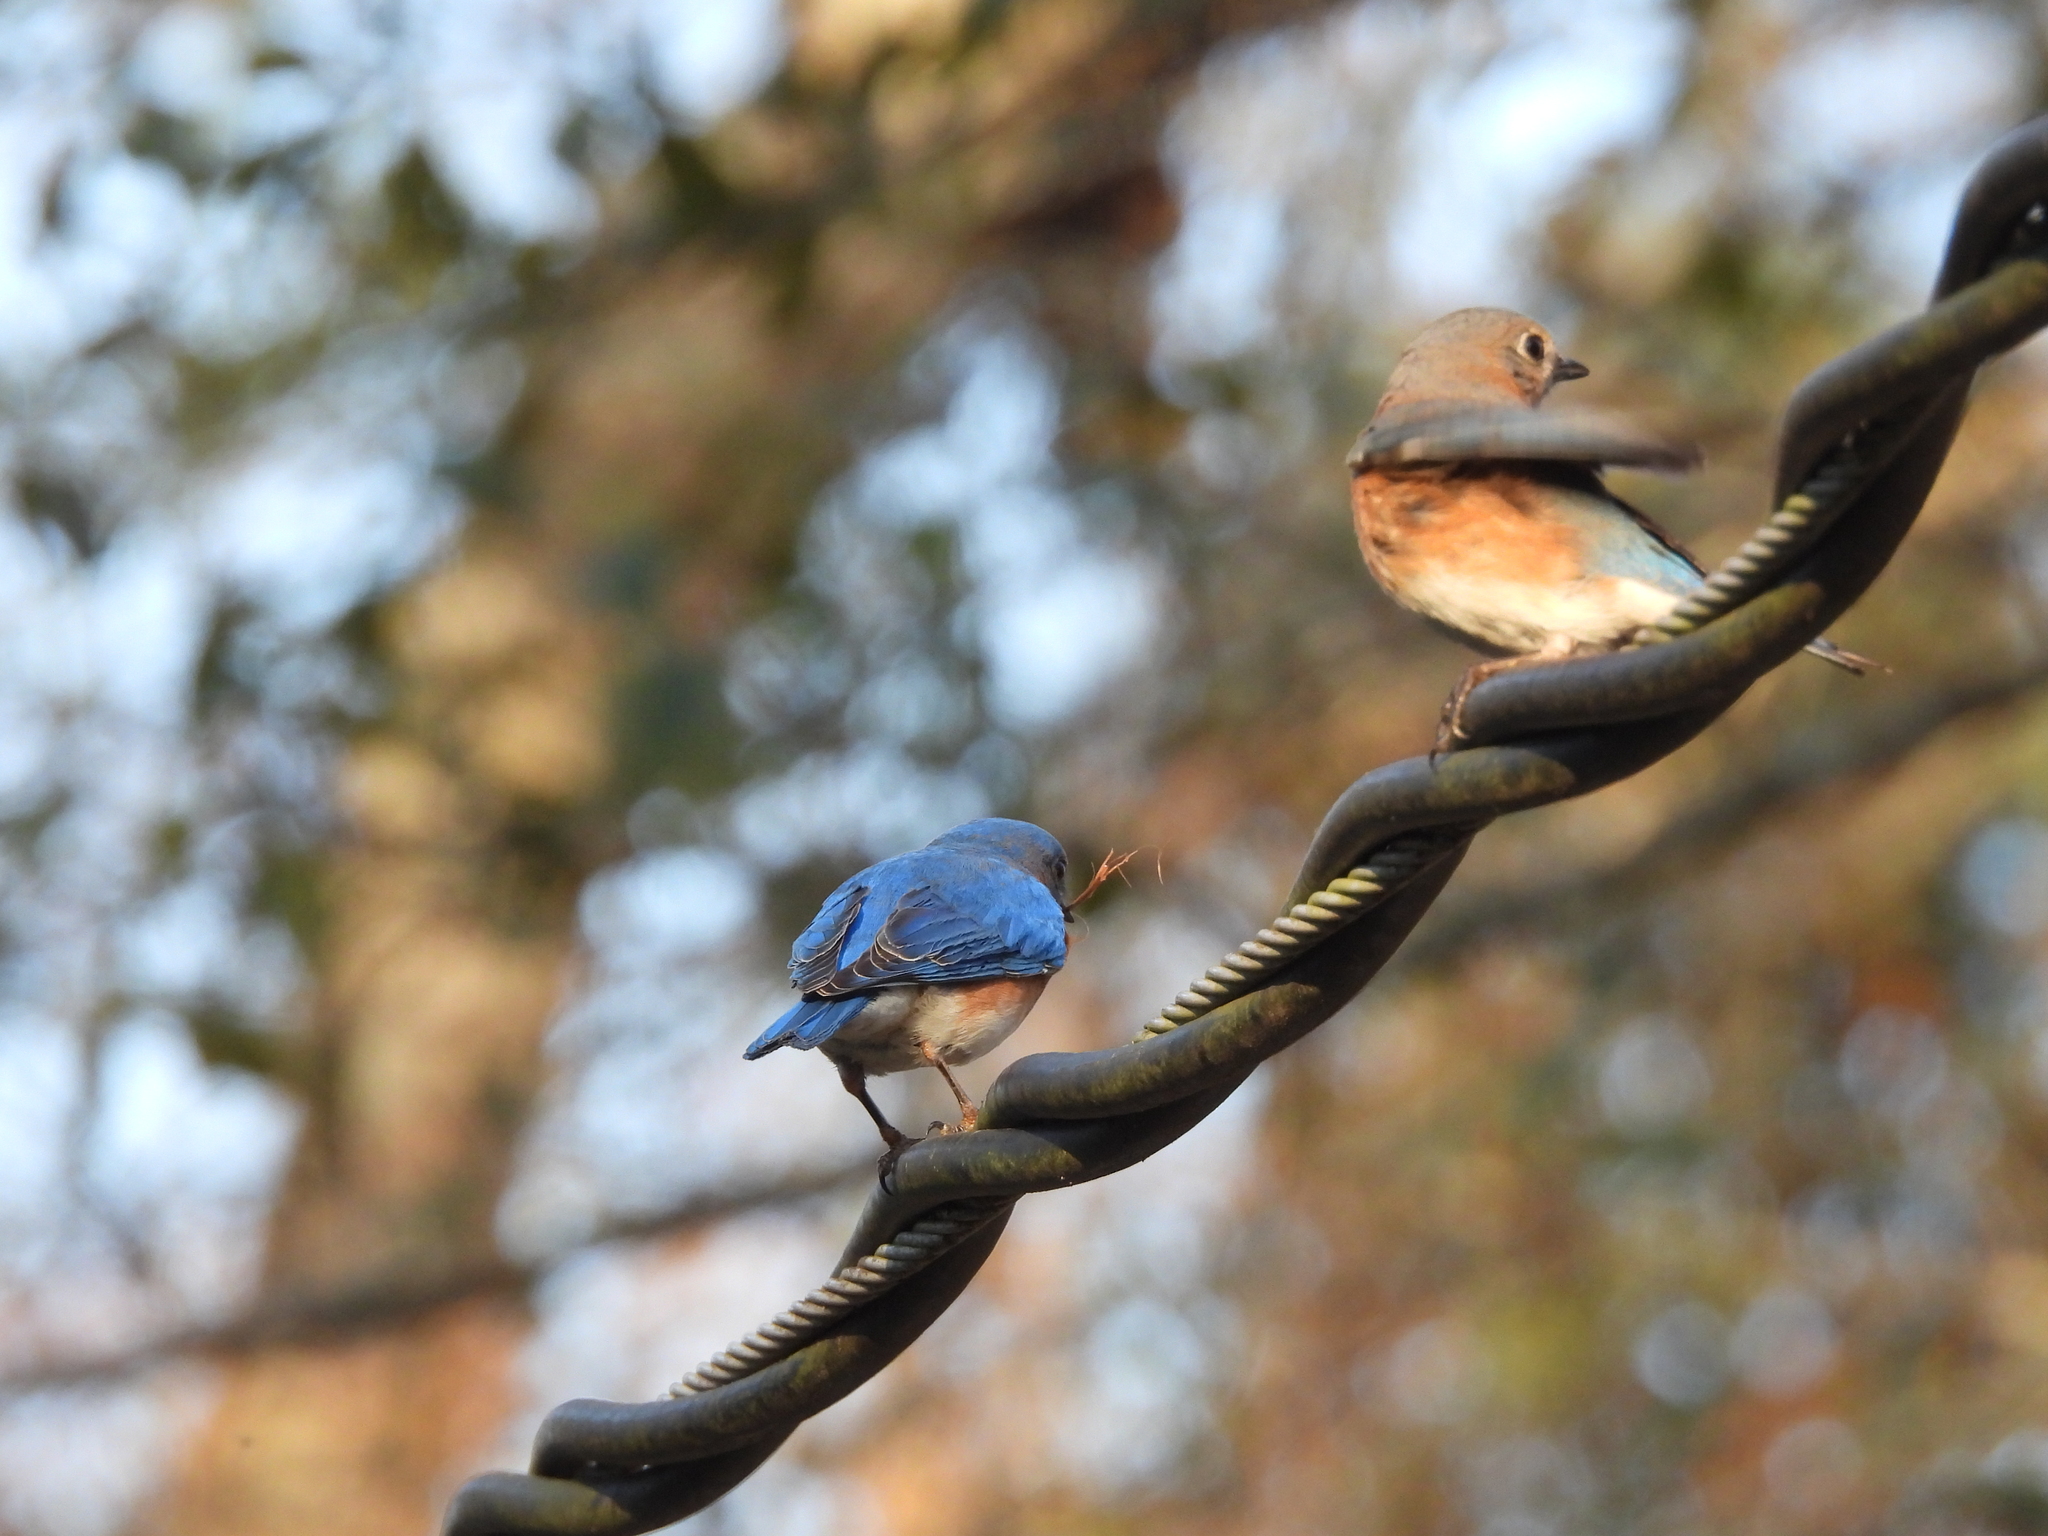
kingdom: Animalia
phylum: Chordata
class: Aves
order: Passeriformes
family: Turdidae
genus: Sialia
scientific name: Sialia sialis
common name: Eastern bluebird
